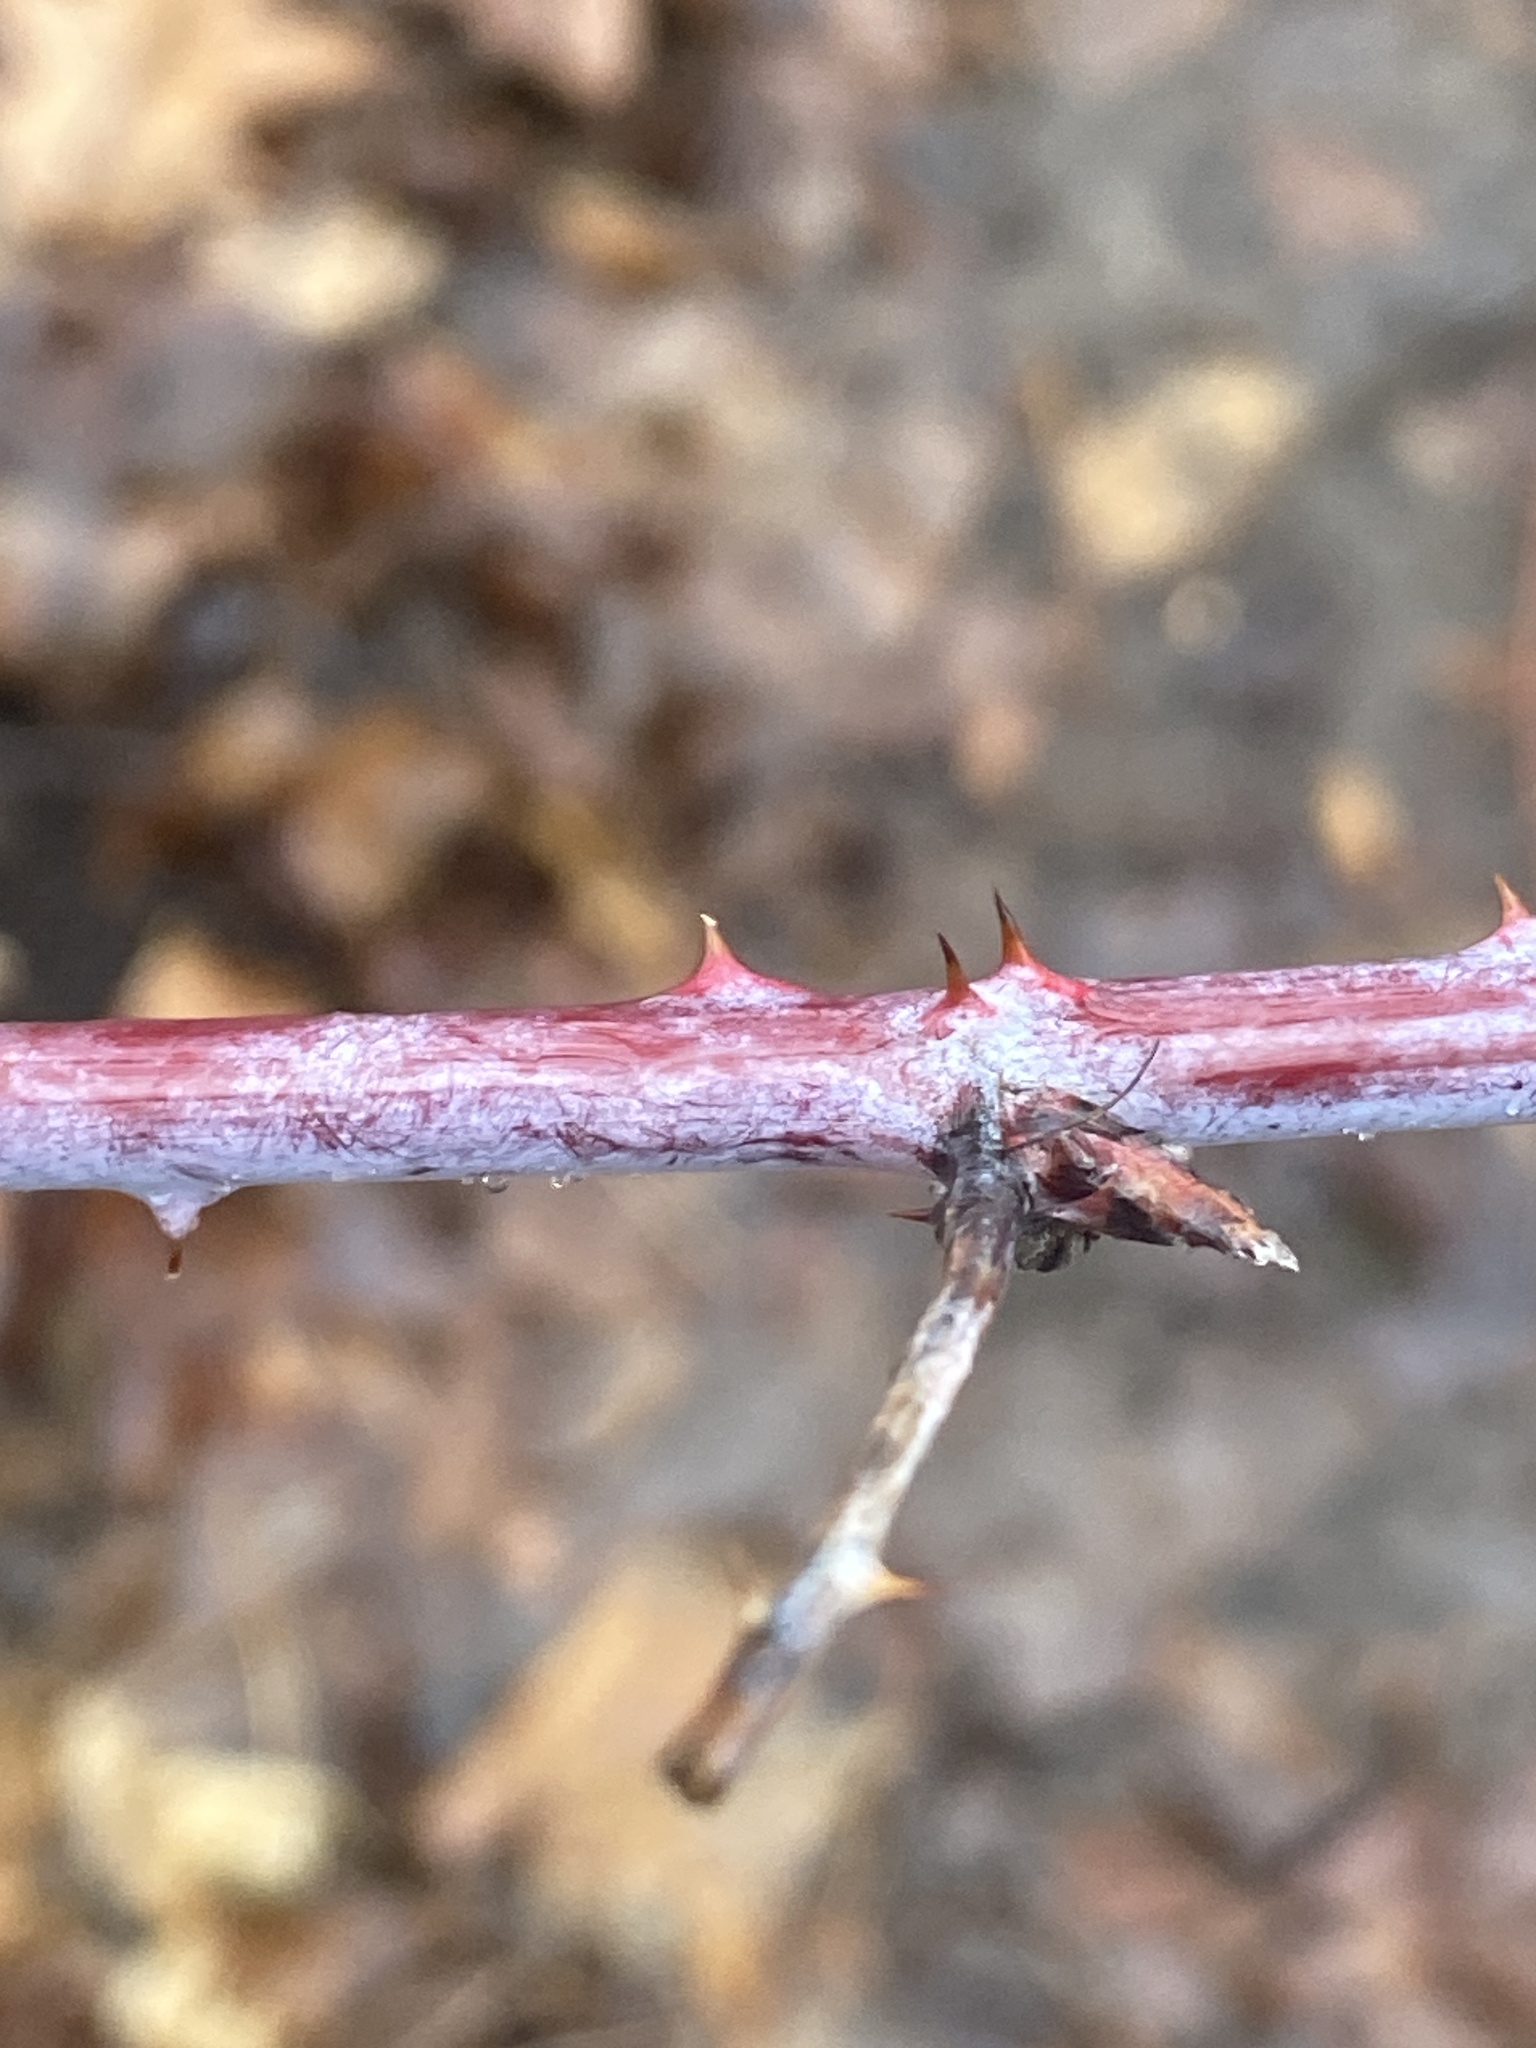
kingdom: Plantae
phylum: Tracheophyta
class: Magnoliopsida
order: Rosales
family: Rosaceae
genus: Rubus
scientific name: Rubus occidentalis
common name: Black raspberry
